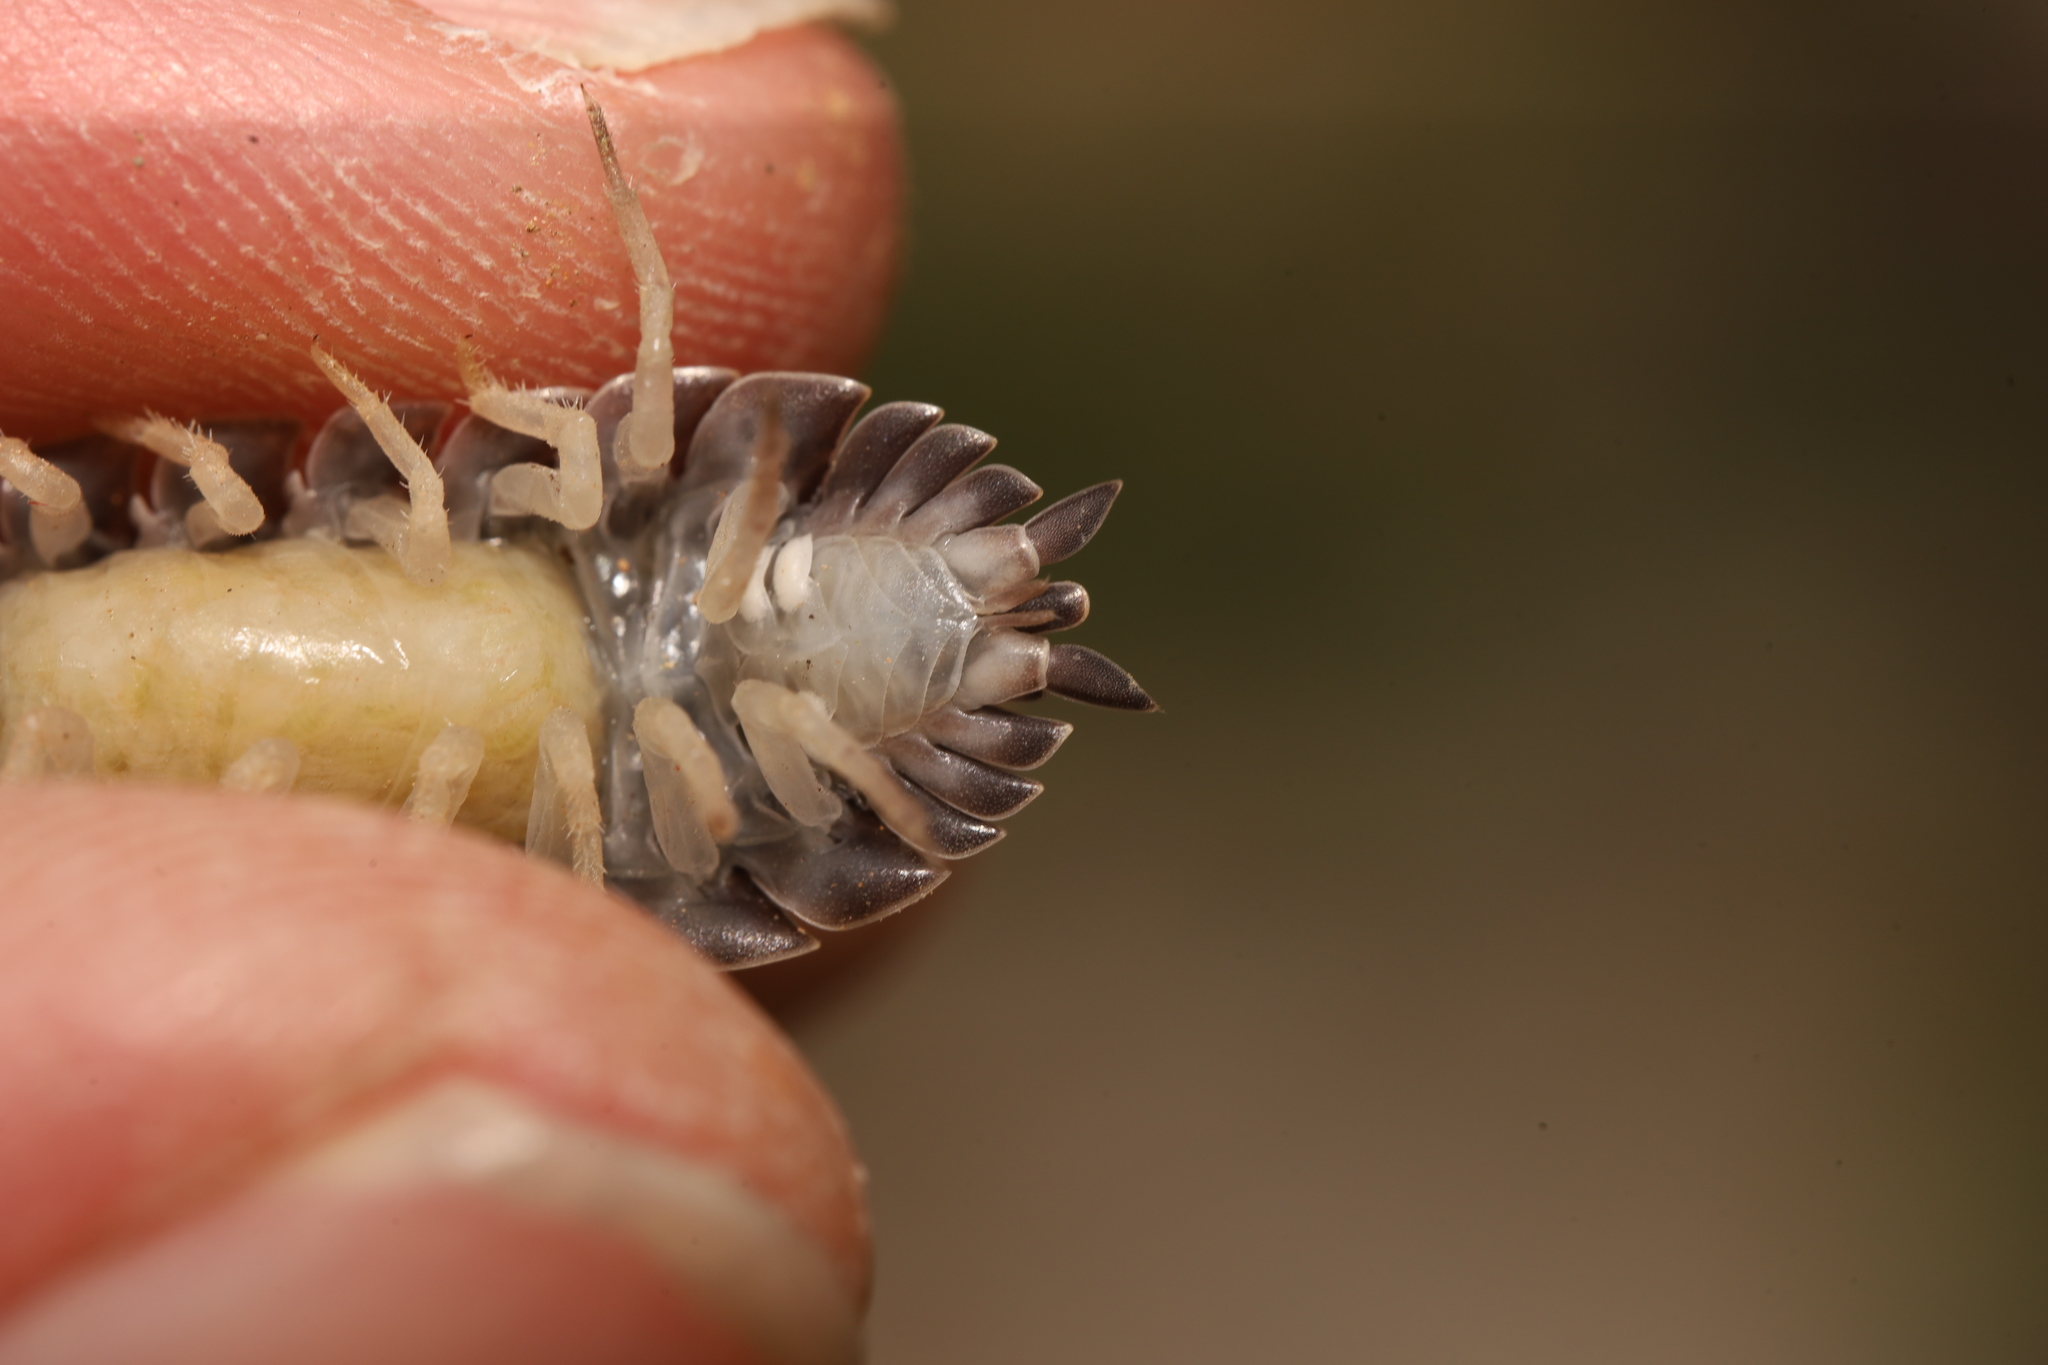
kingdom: Animalia
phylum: Arthropoda
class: Malacostraca
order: Isopoda
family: Porcellionidae
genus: Porcellio
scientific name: Porcellio echinatus
